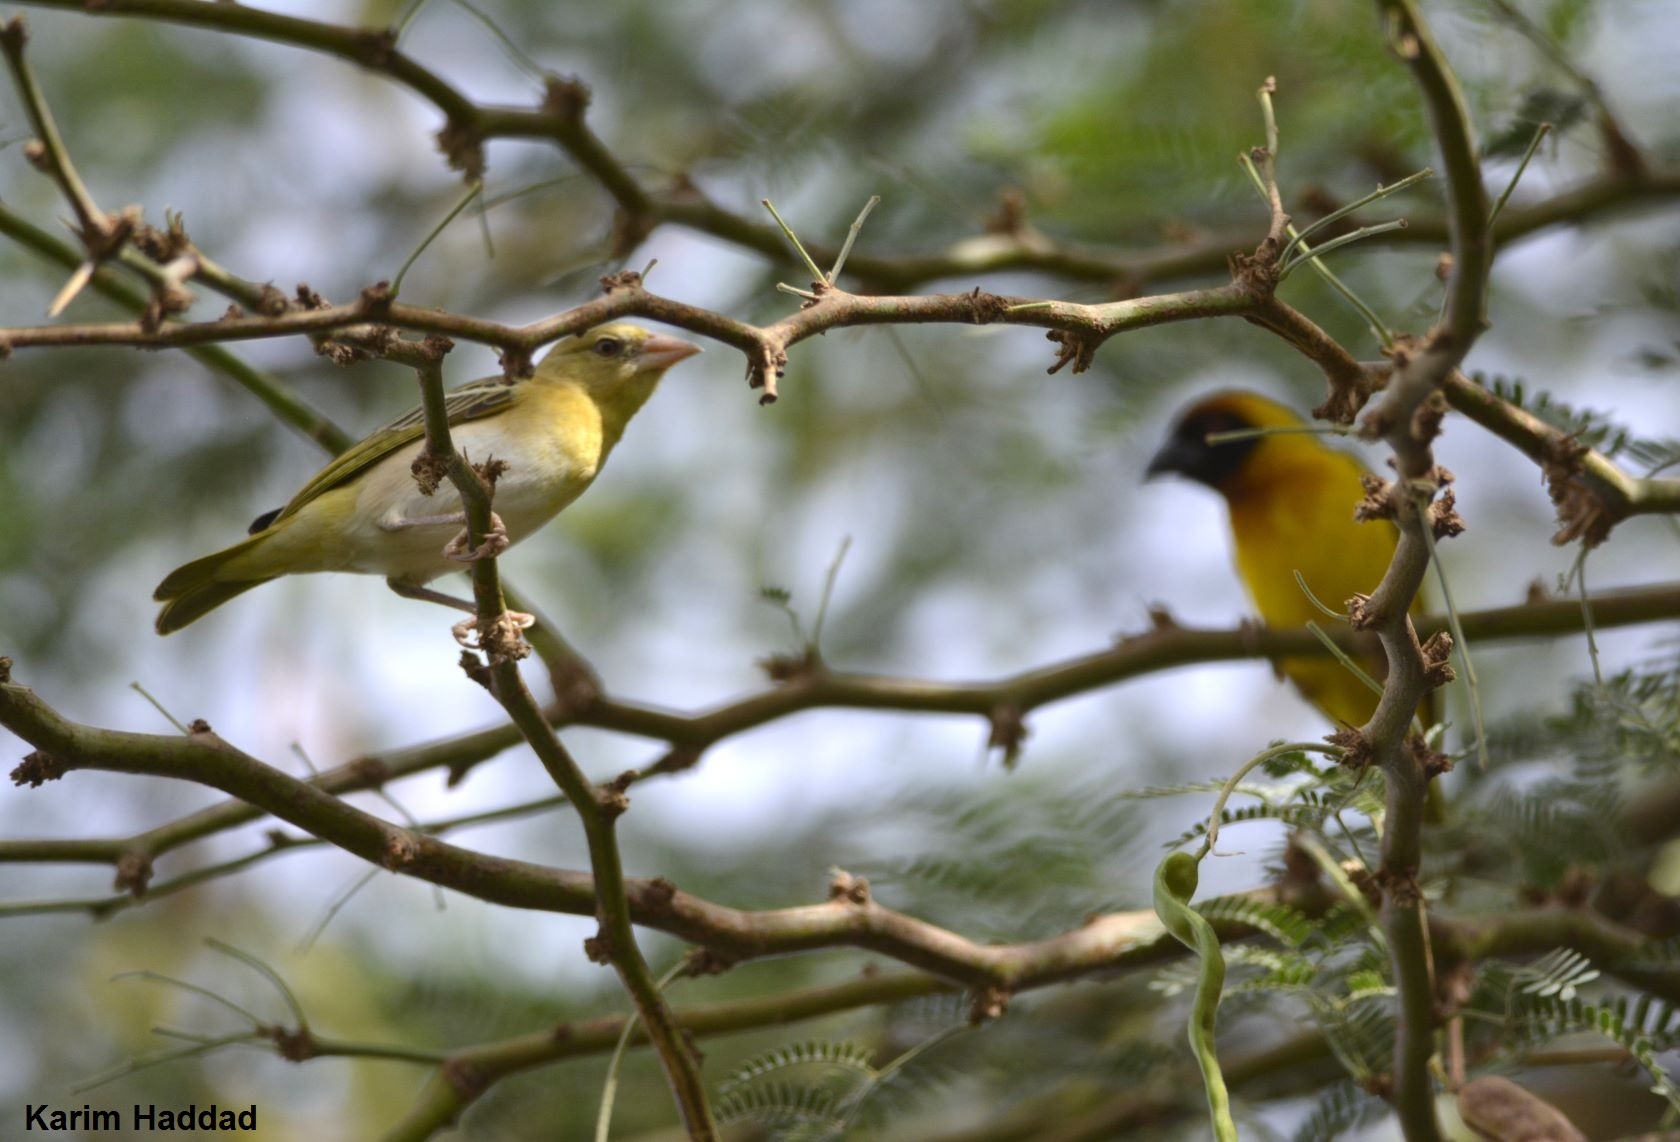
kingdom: Animalia
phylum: Chordata
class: Aves
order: Passeriformes
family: Ploceidae
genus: Ploceus
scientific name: Ploceus vitellinus
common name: Vitelline masked weaver
